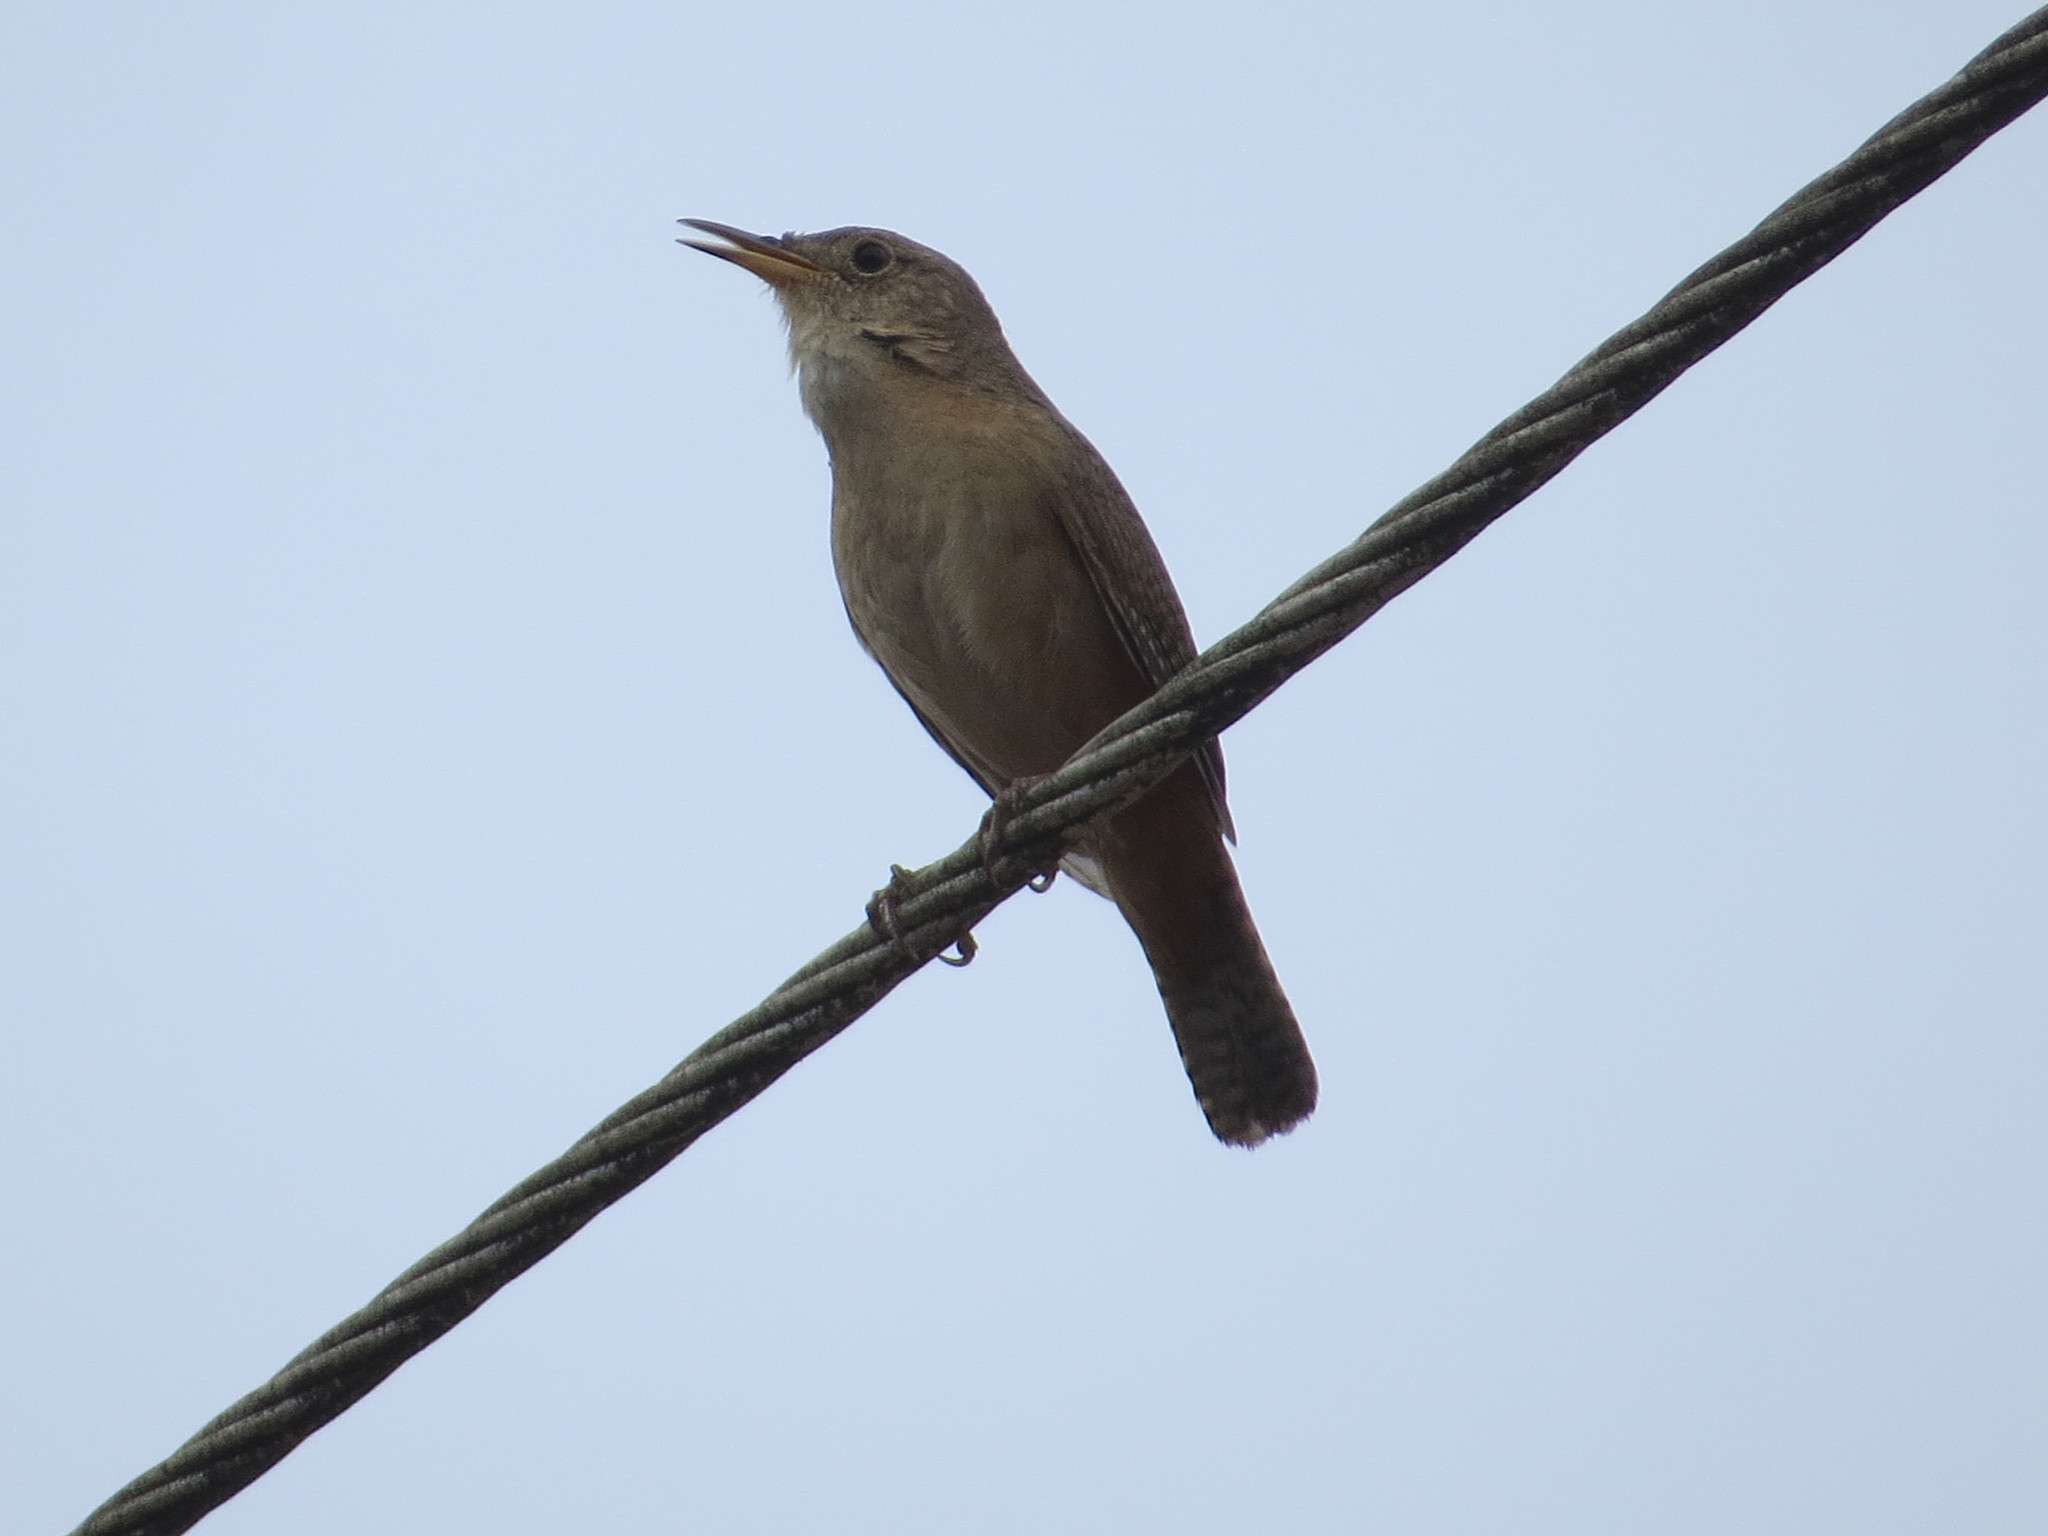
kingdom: Animalia
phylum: Chordata
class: Aves
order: Passeriformes
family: Troglodytidae
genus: Troglodytes
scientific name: Troglodytes aedon
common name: House wren
